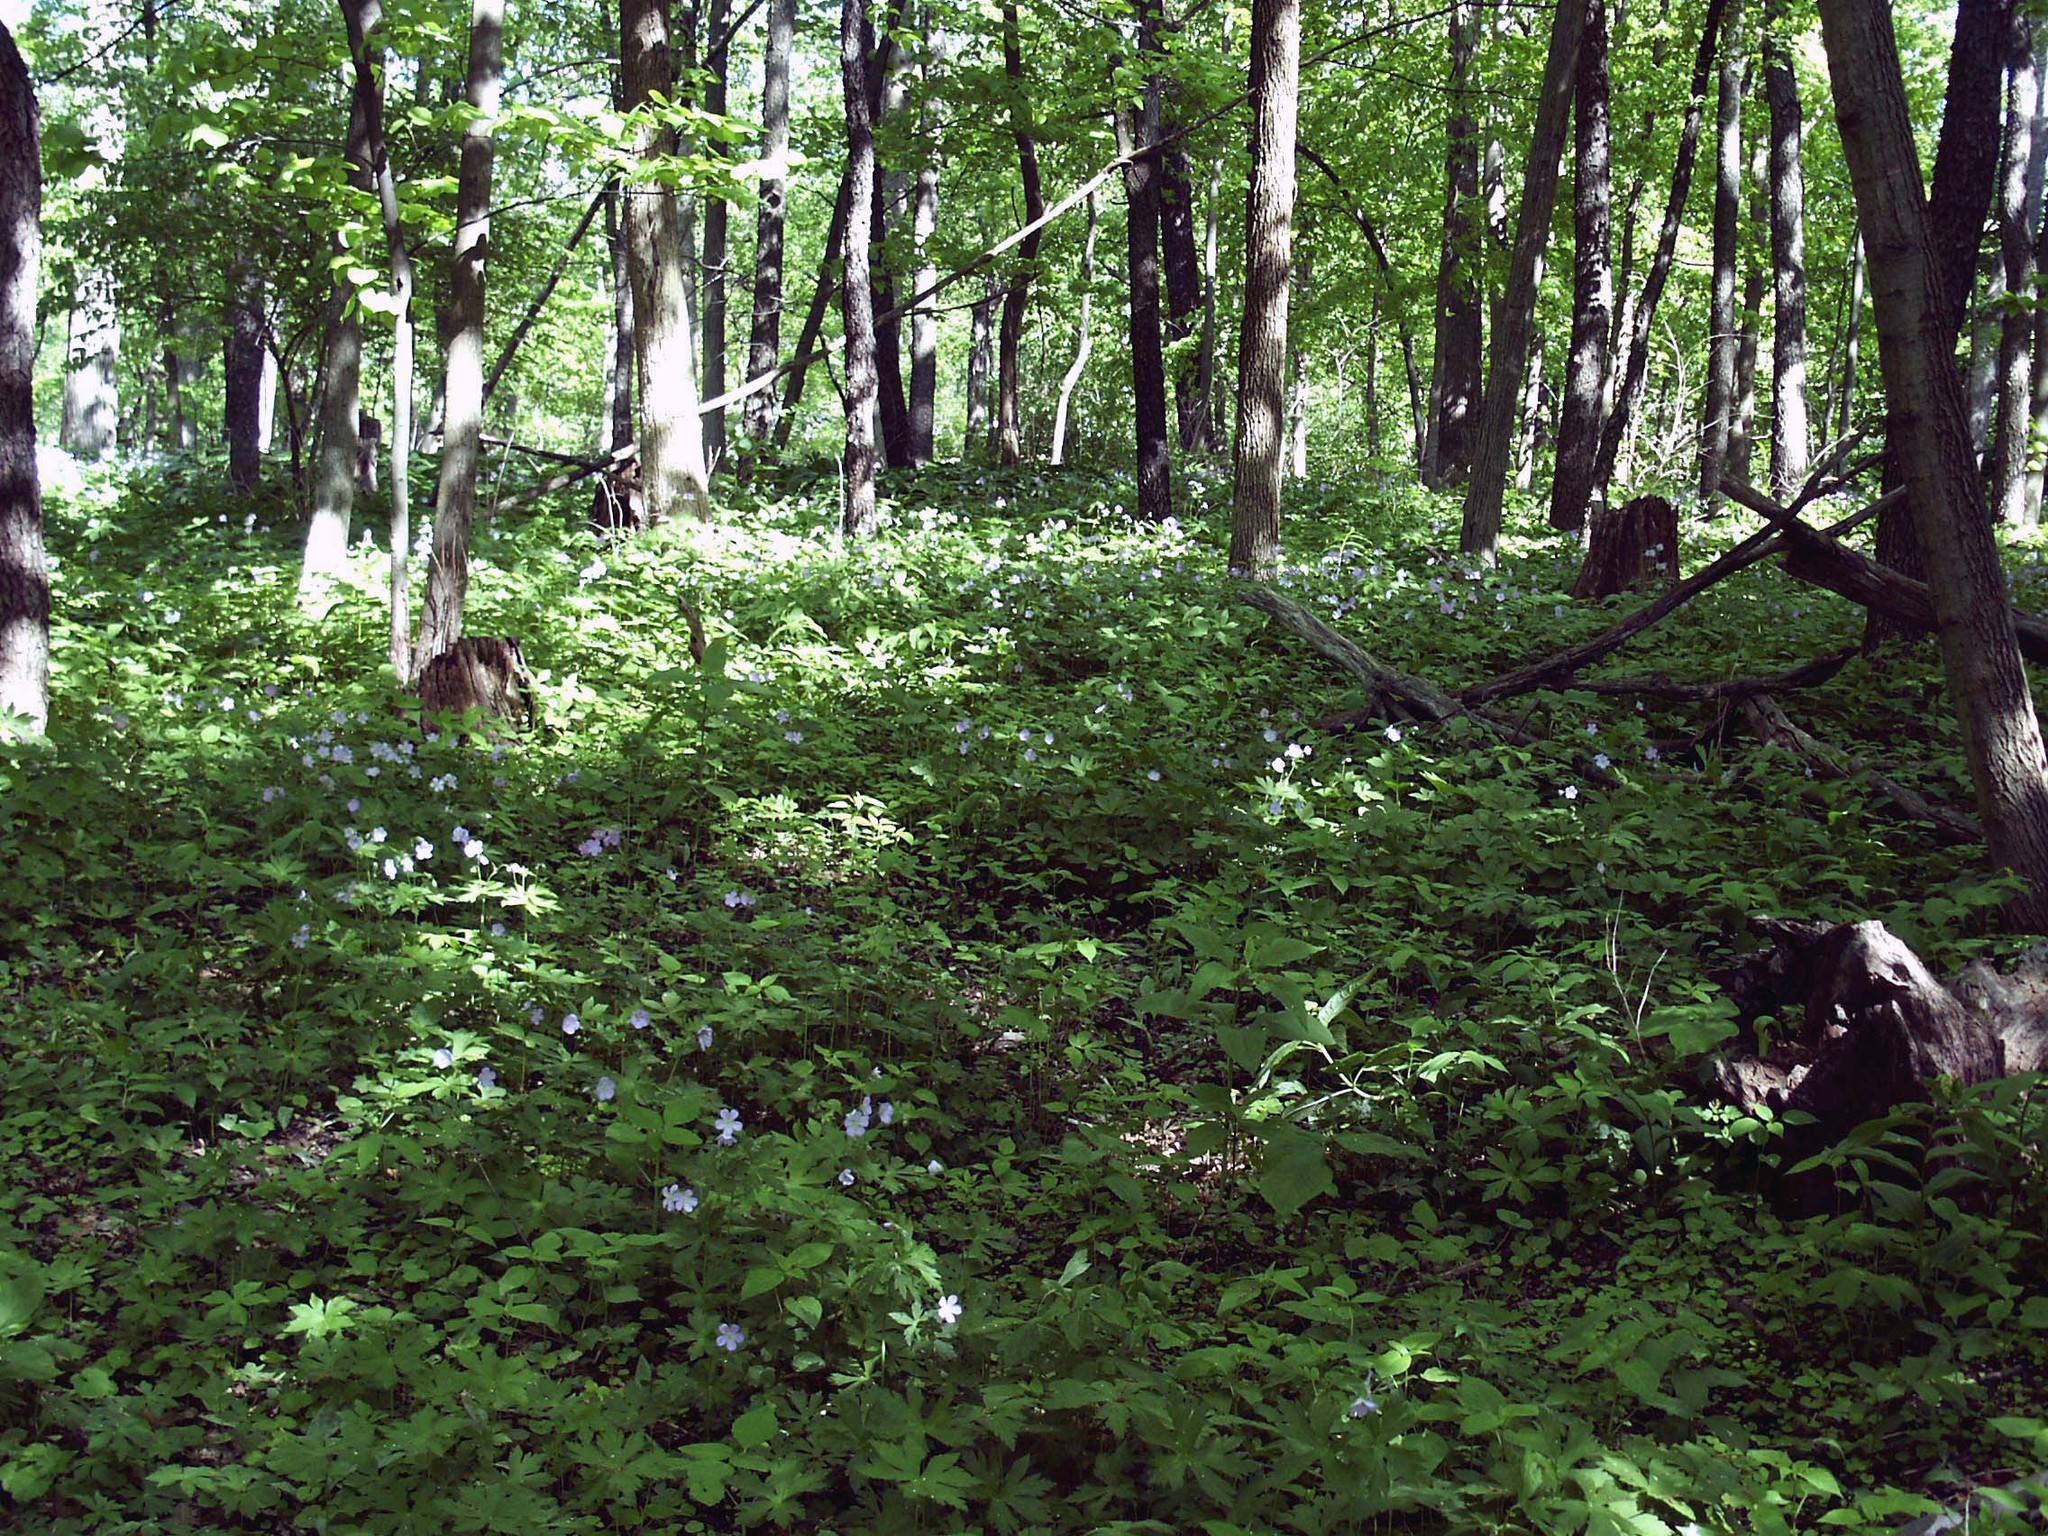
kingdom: Plantae
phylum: Tracheophyta
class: Magnoliopsida
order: Geraniales
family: Geraniaceae
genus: Geranium
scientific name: Geranium maculatum
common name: Spotted geranium
